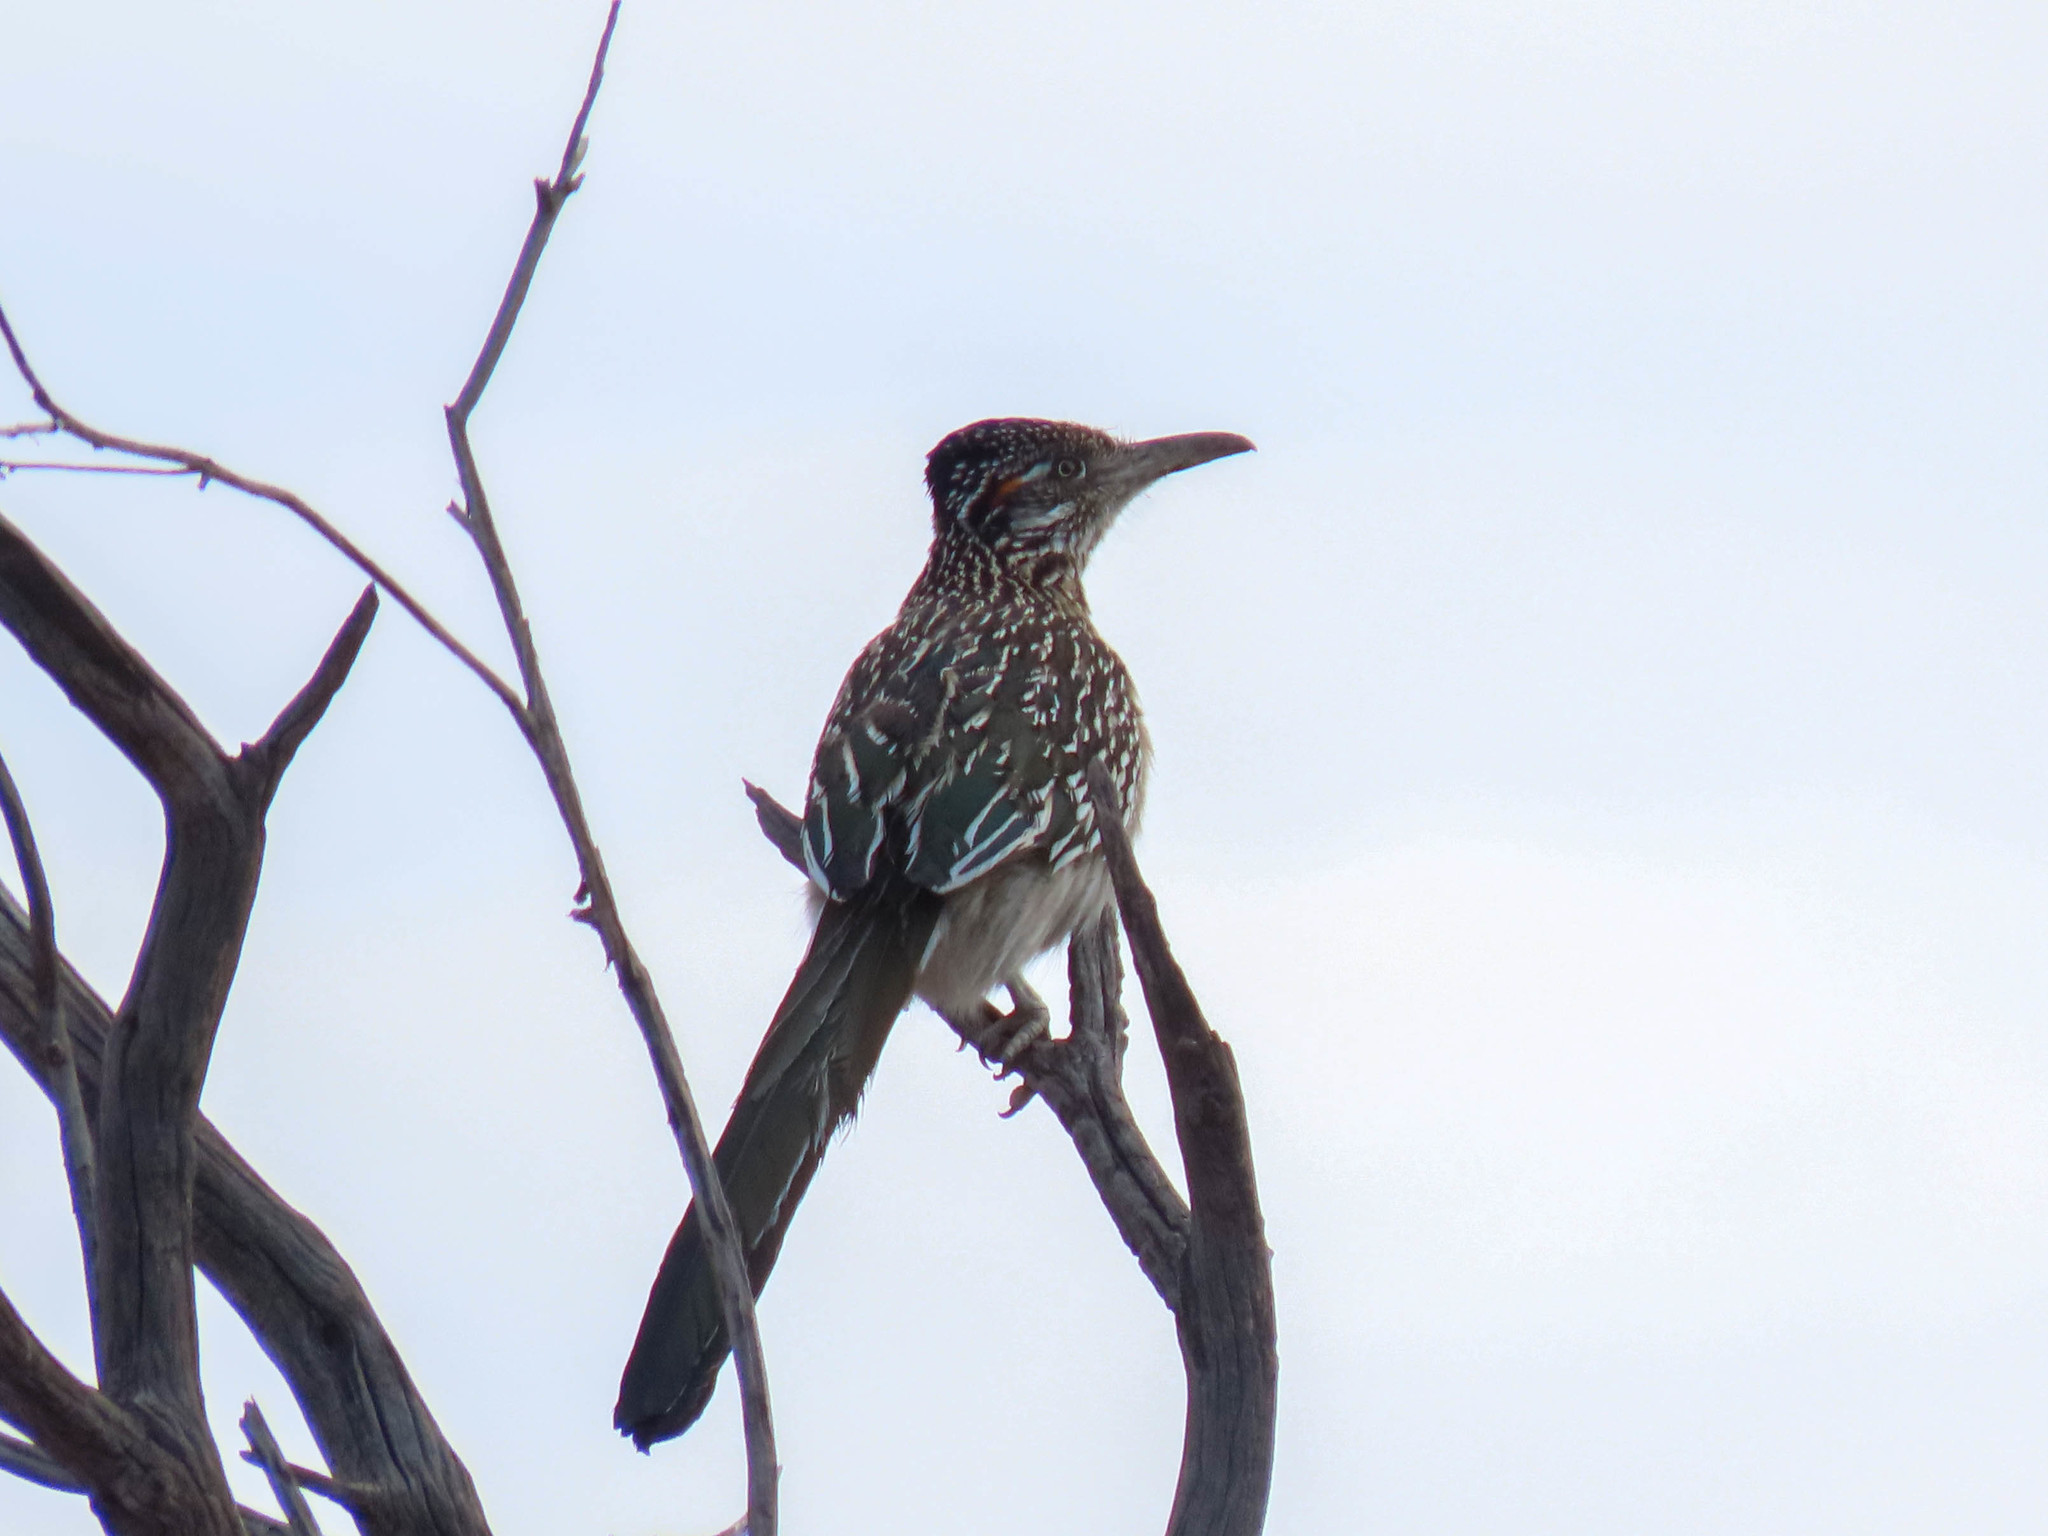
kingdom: Animalia
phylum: Chordata
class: Aves
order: Cuculiformes
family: Cuculidae
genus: Geococcyx
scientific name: Geococcyx californianus
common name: Greater roadrunner
